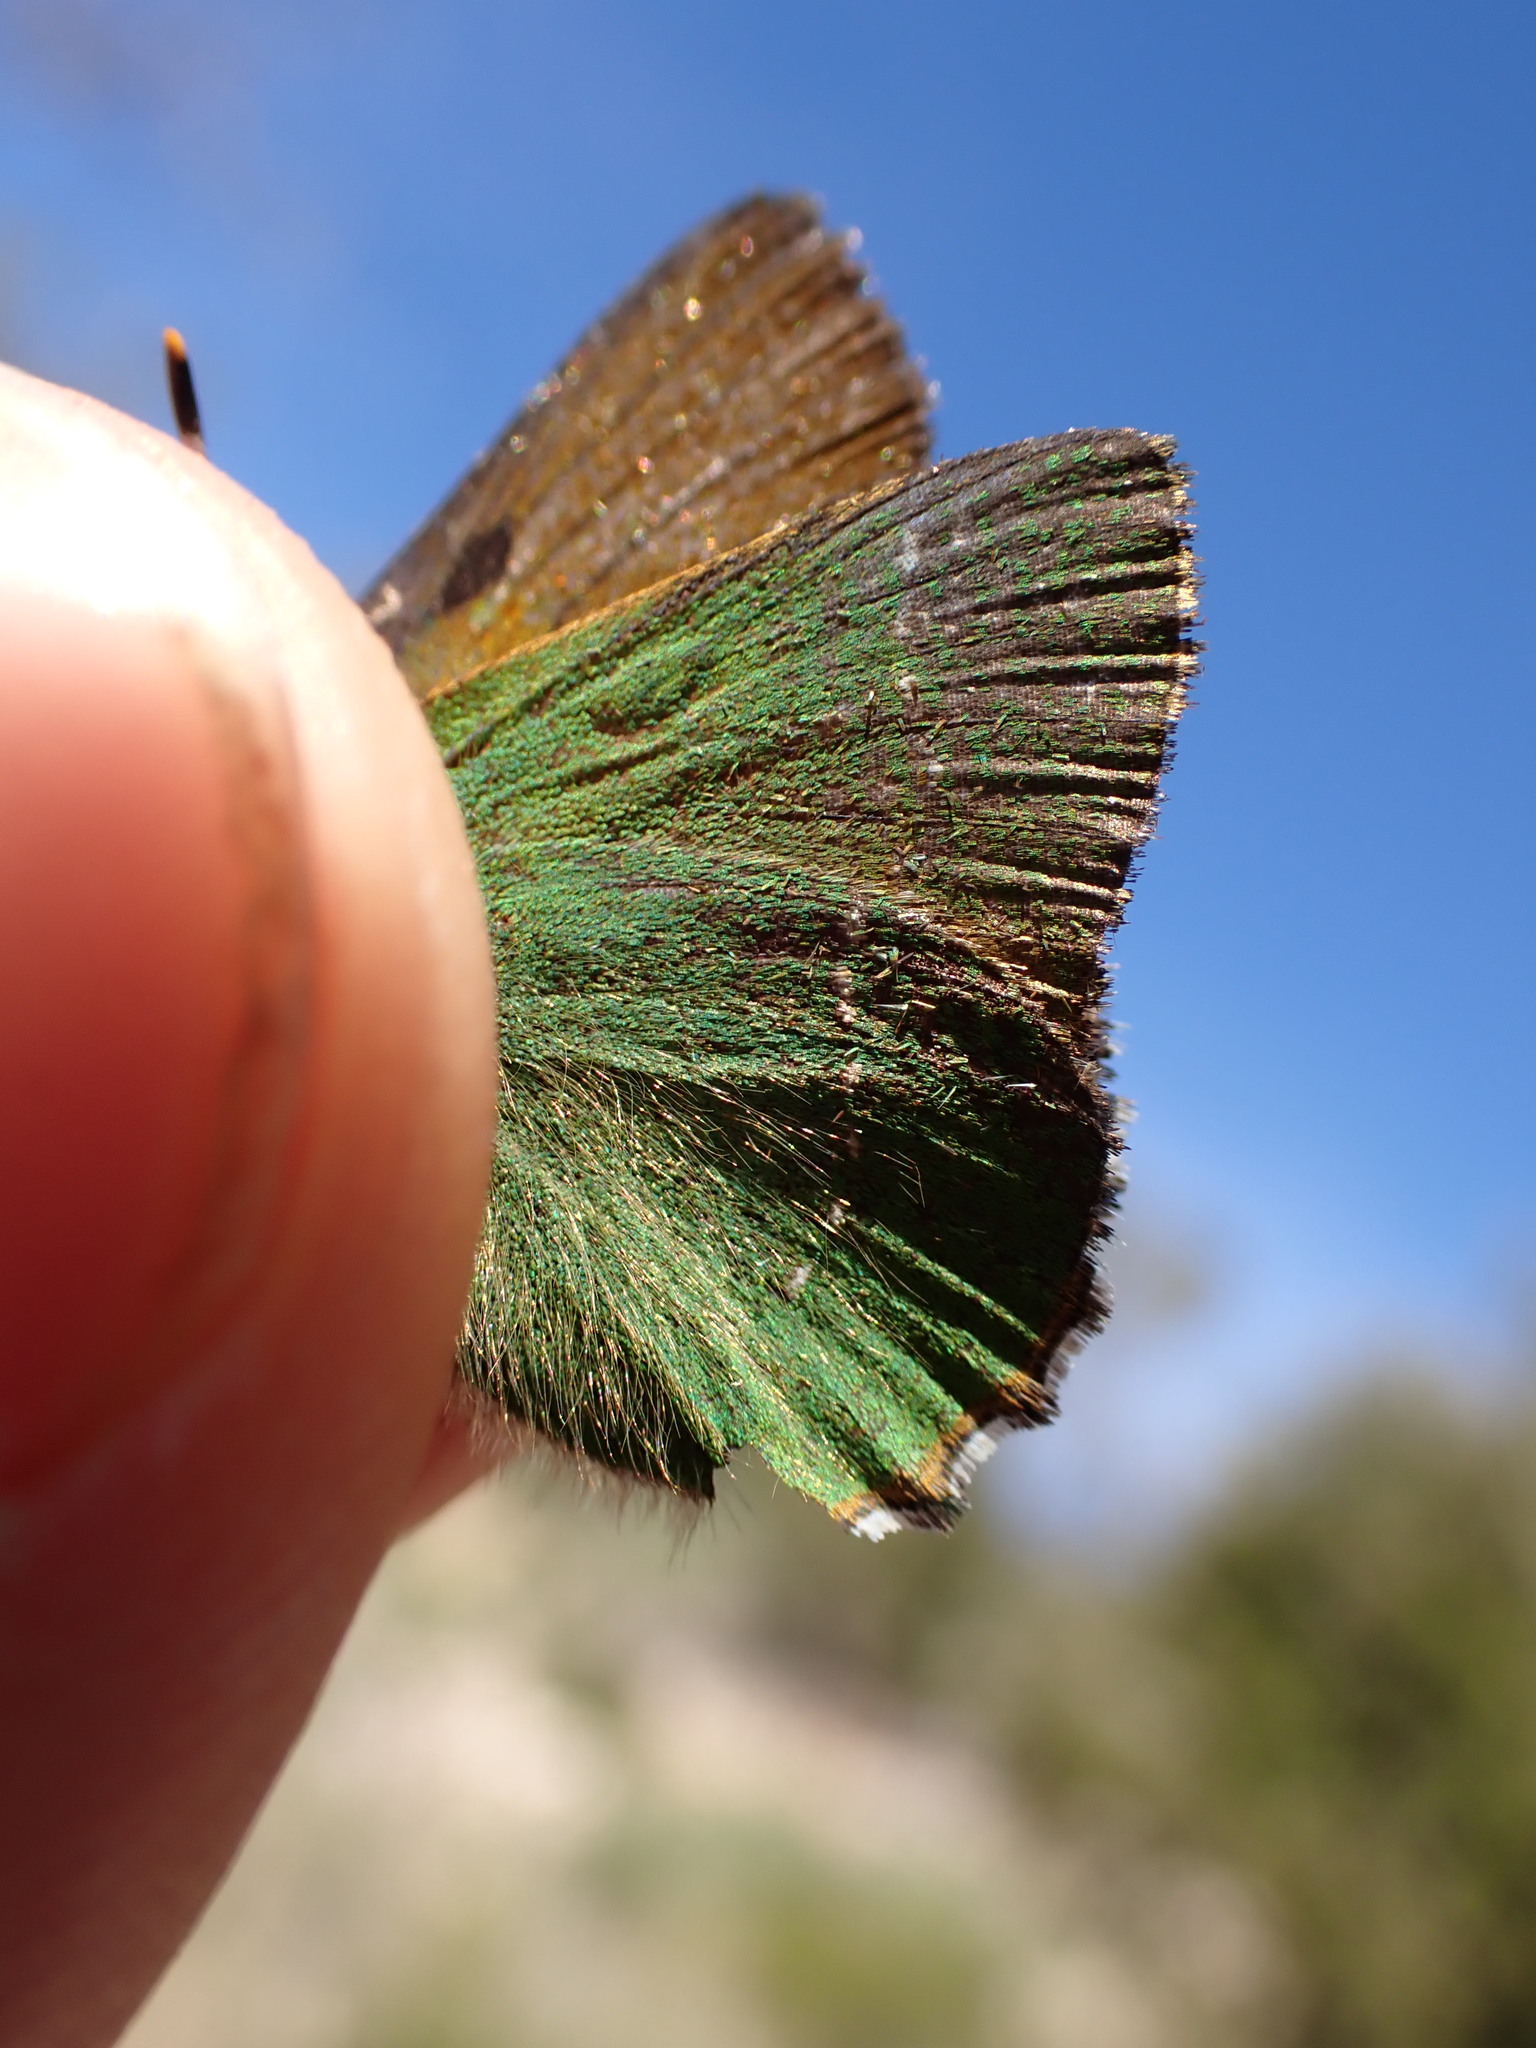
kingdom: Animalia
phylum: Arthropoda
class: Insecta
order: Lepidoptera
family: Lycaenidae
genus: Callophrys
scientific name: Callophrys rubi
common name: Green hairstreak
